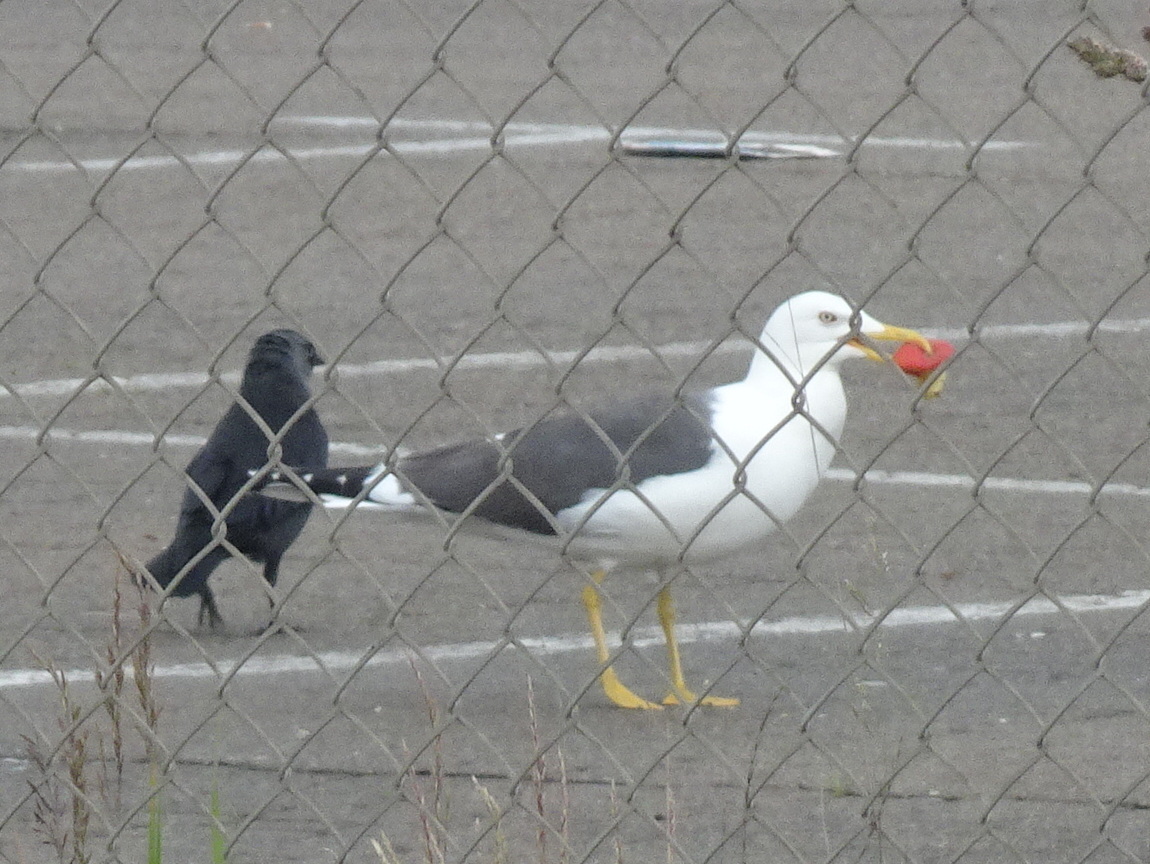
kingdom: Animalia
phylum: Chordata
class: Aves
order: Charadriiformes
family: Laridae
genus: Larus
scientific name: Larus fuscus
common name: Lesser black-backed gull
